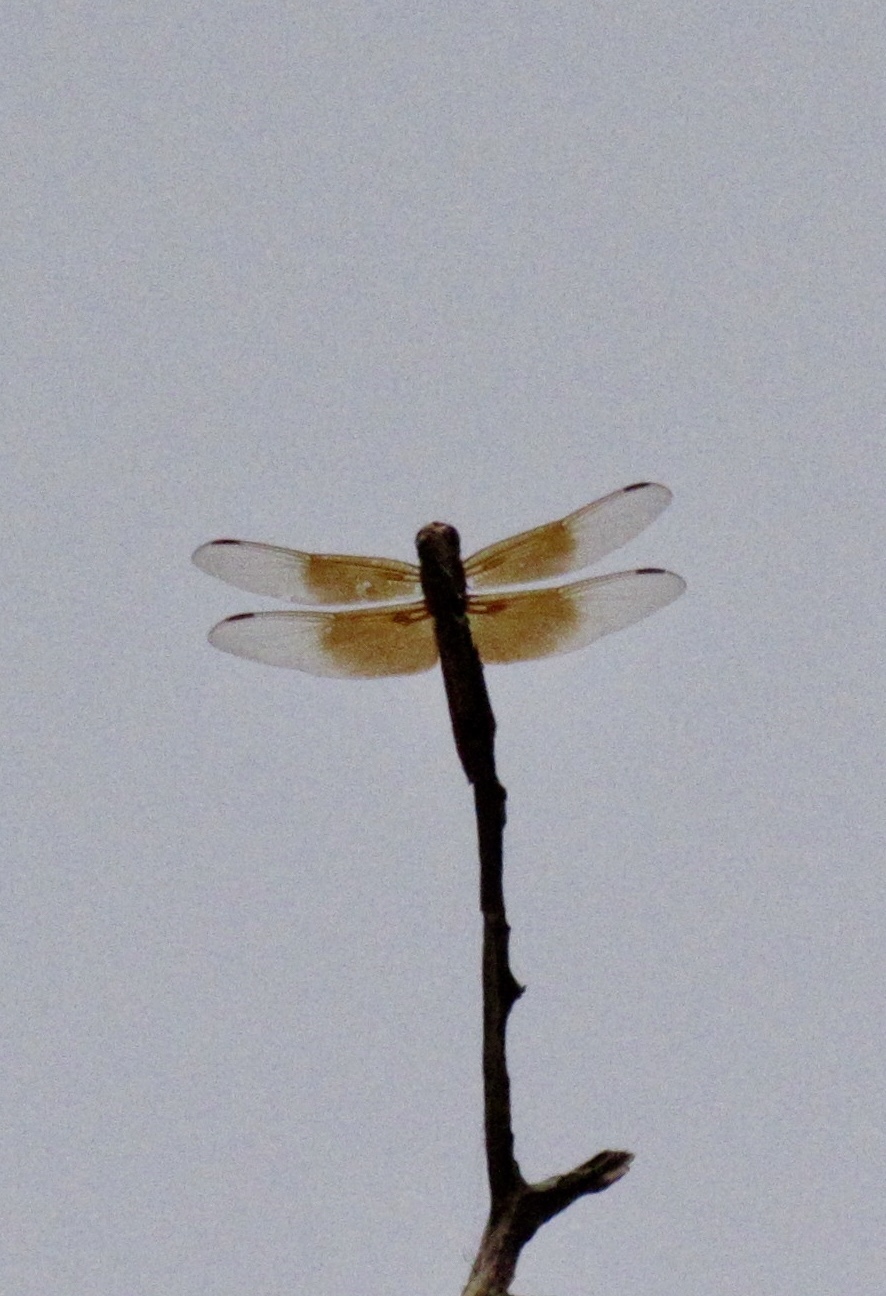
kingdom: Animalia
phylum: Arthropoda
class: Insecta
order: Odonata
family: Libellulidae
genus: Libellula
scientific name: Libellula saturata
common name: Flame skimmer
